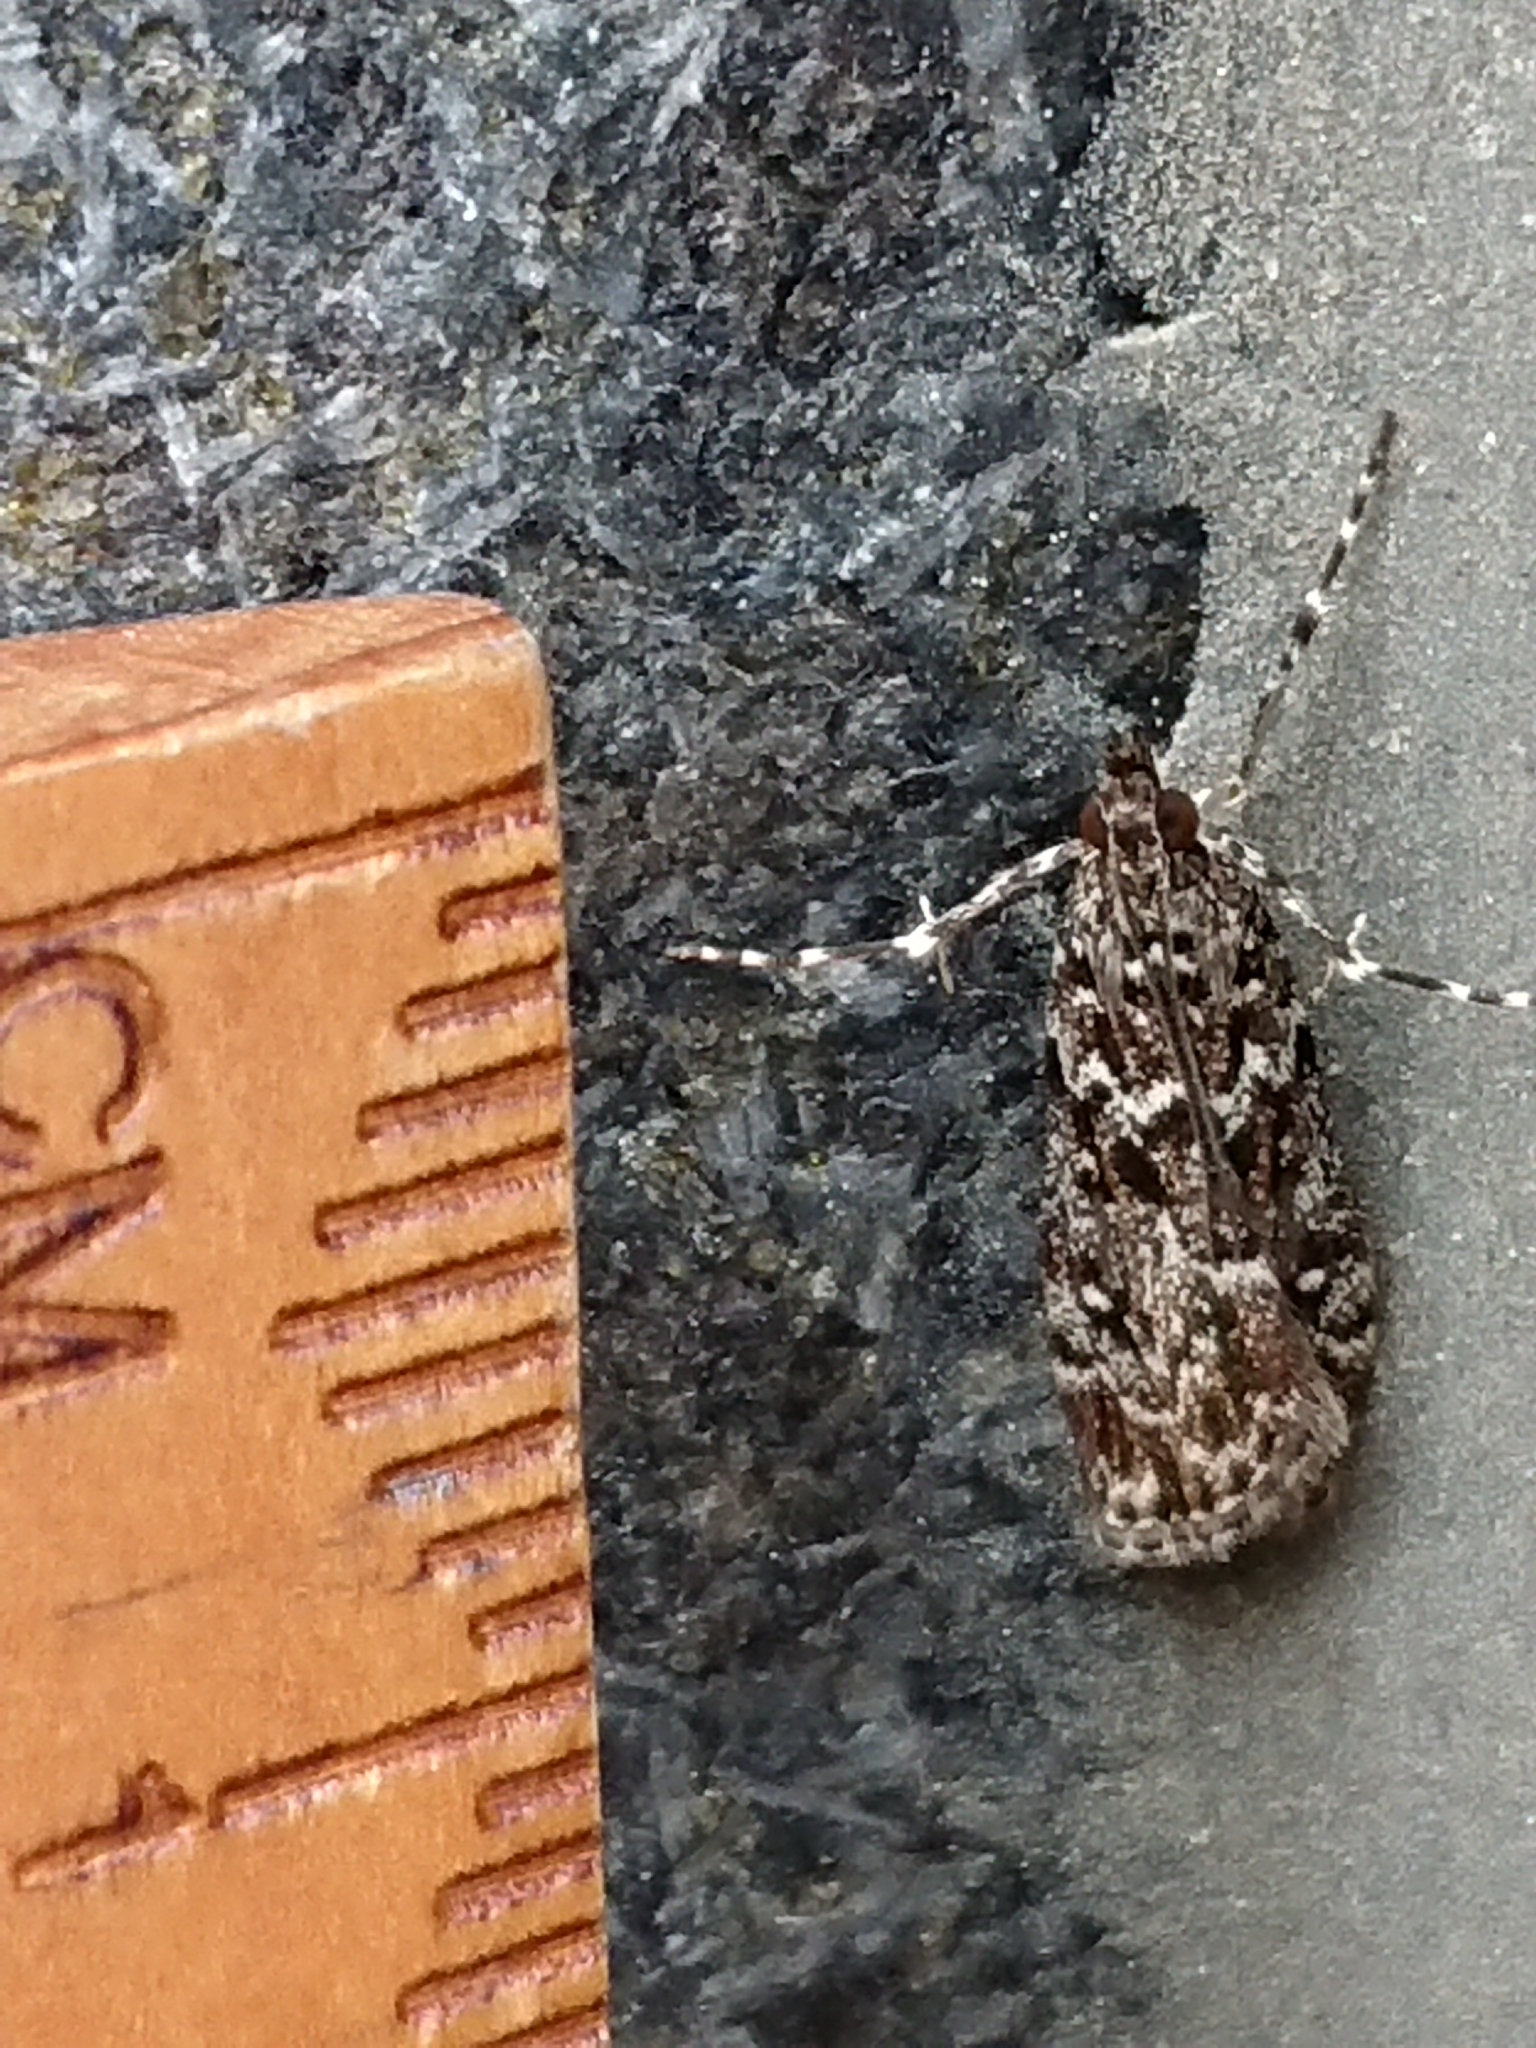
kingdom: Animalia
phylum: Arthropoda
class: Insecta
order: Lepidoptera
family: Crambidae
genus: Eudonia
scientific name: Eudonia philerga
